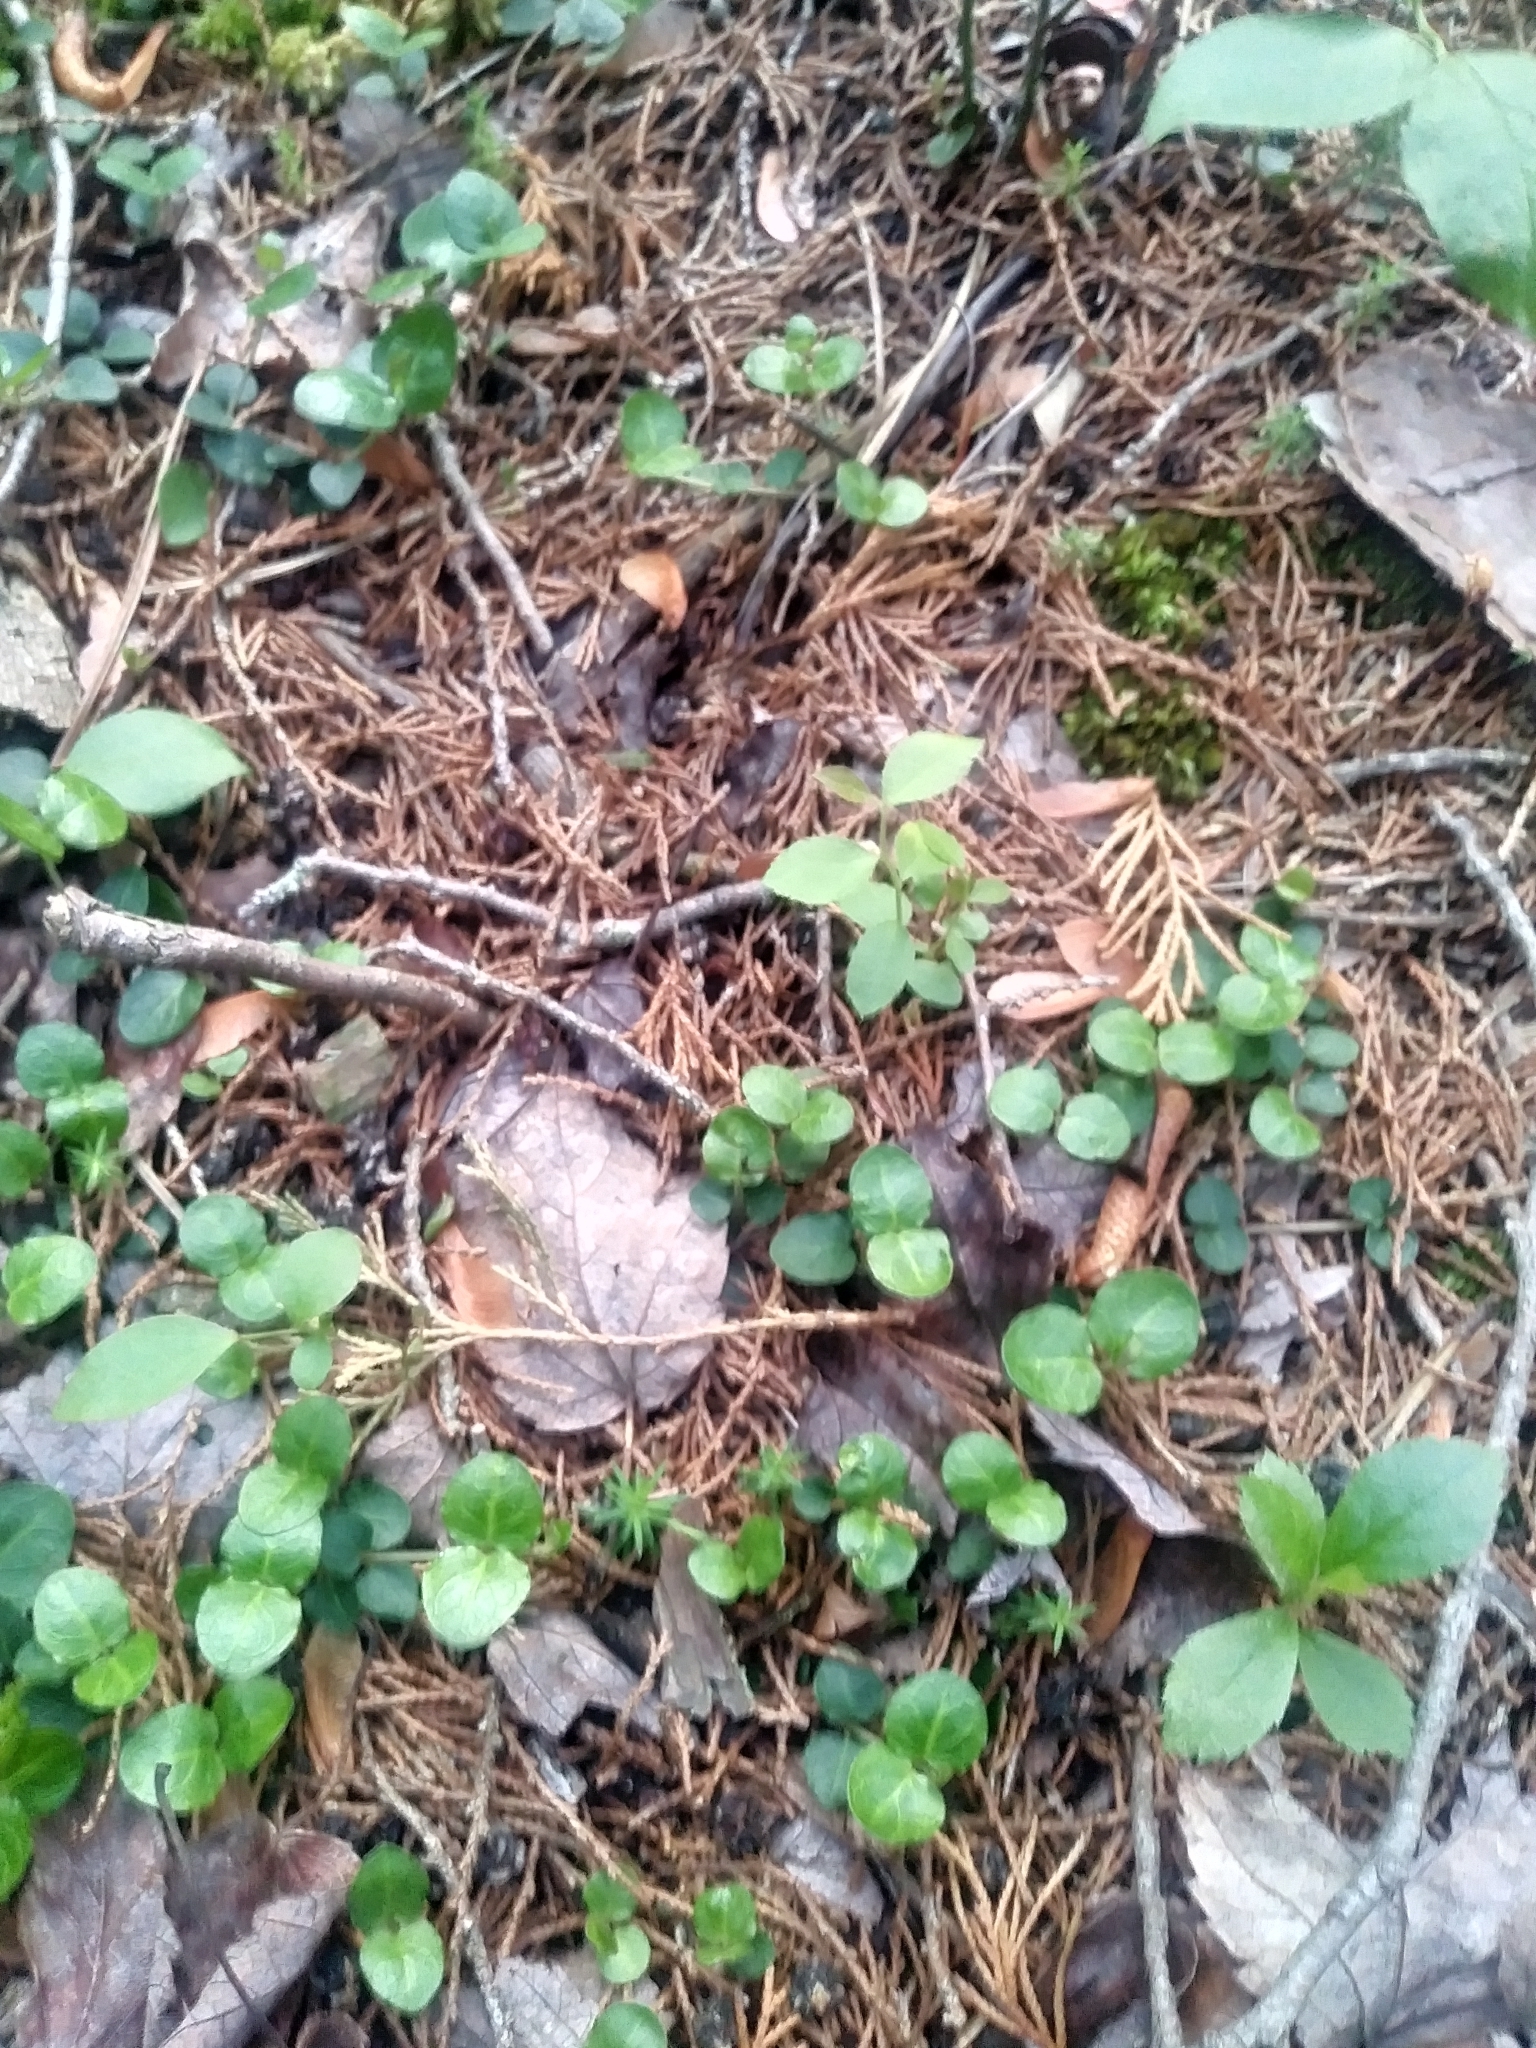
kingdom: Plantae
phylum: Tracheophyta
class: Magnoliopsida
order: Gentianales
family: Rubiaceae
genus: Mitchella
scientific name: Mitchella repens
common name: Partridge-berry
